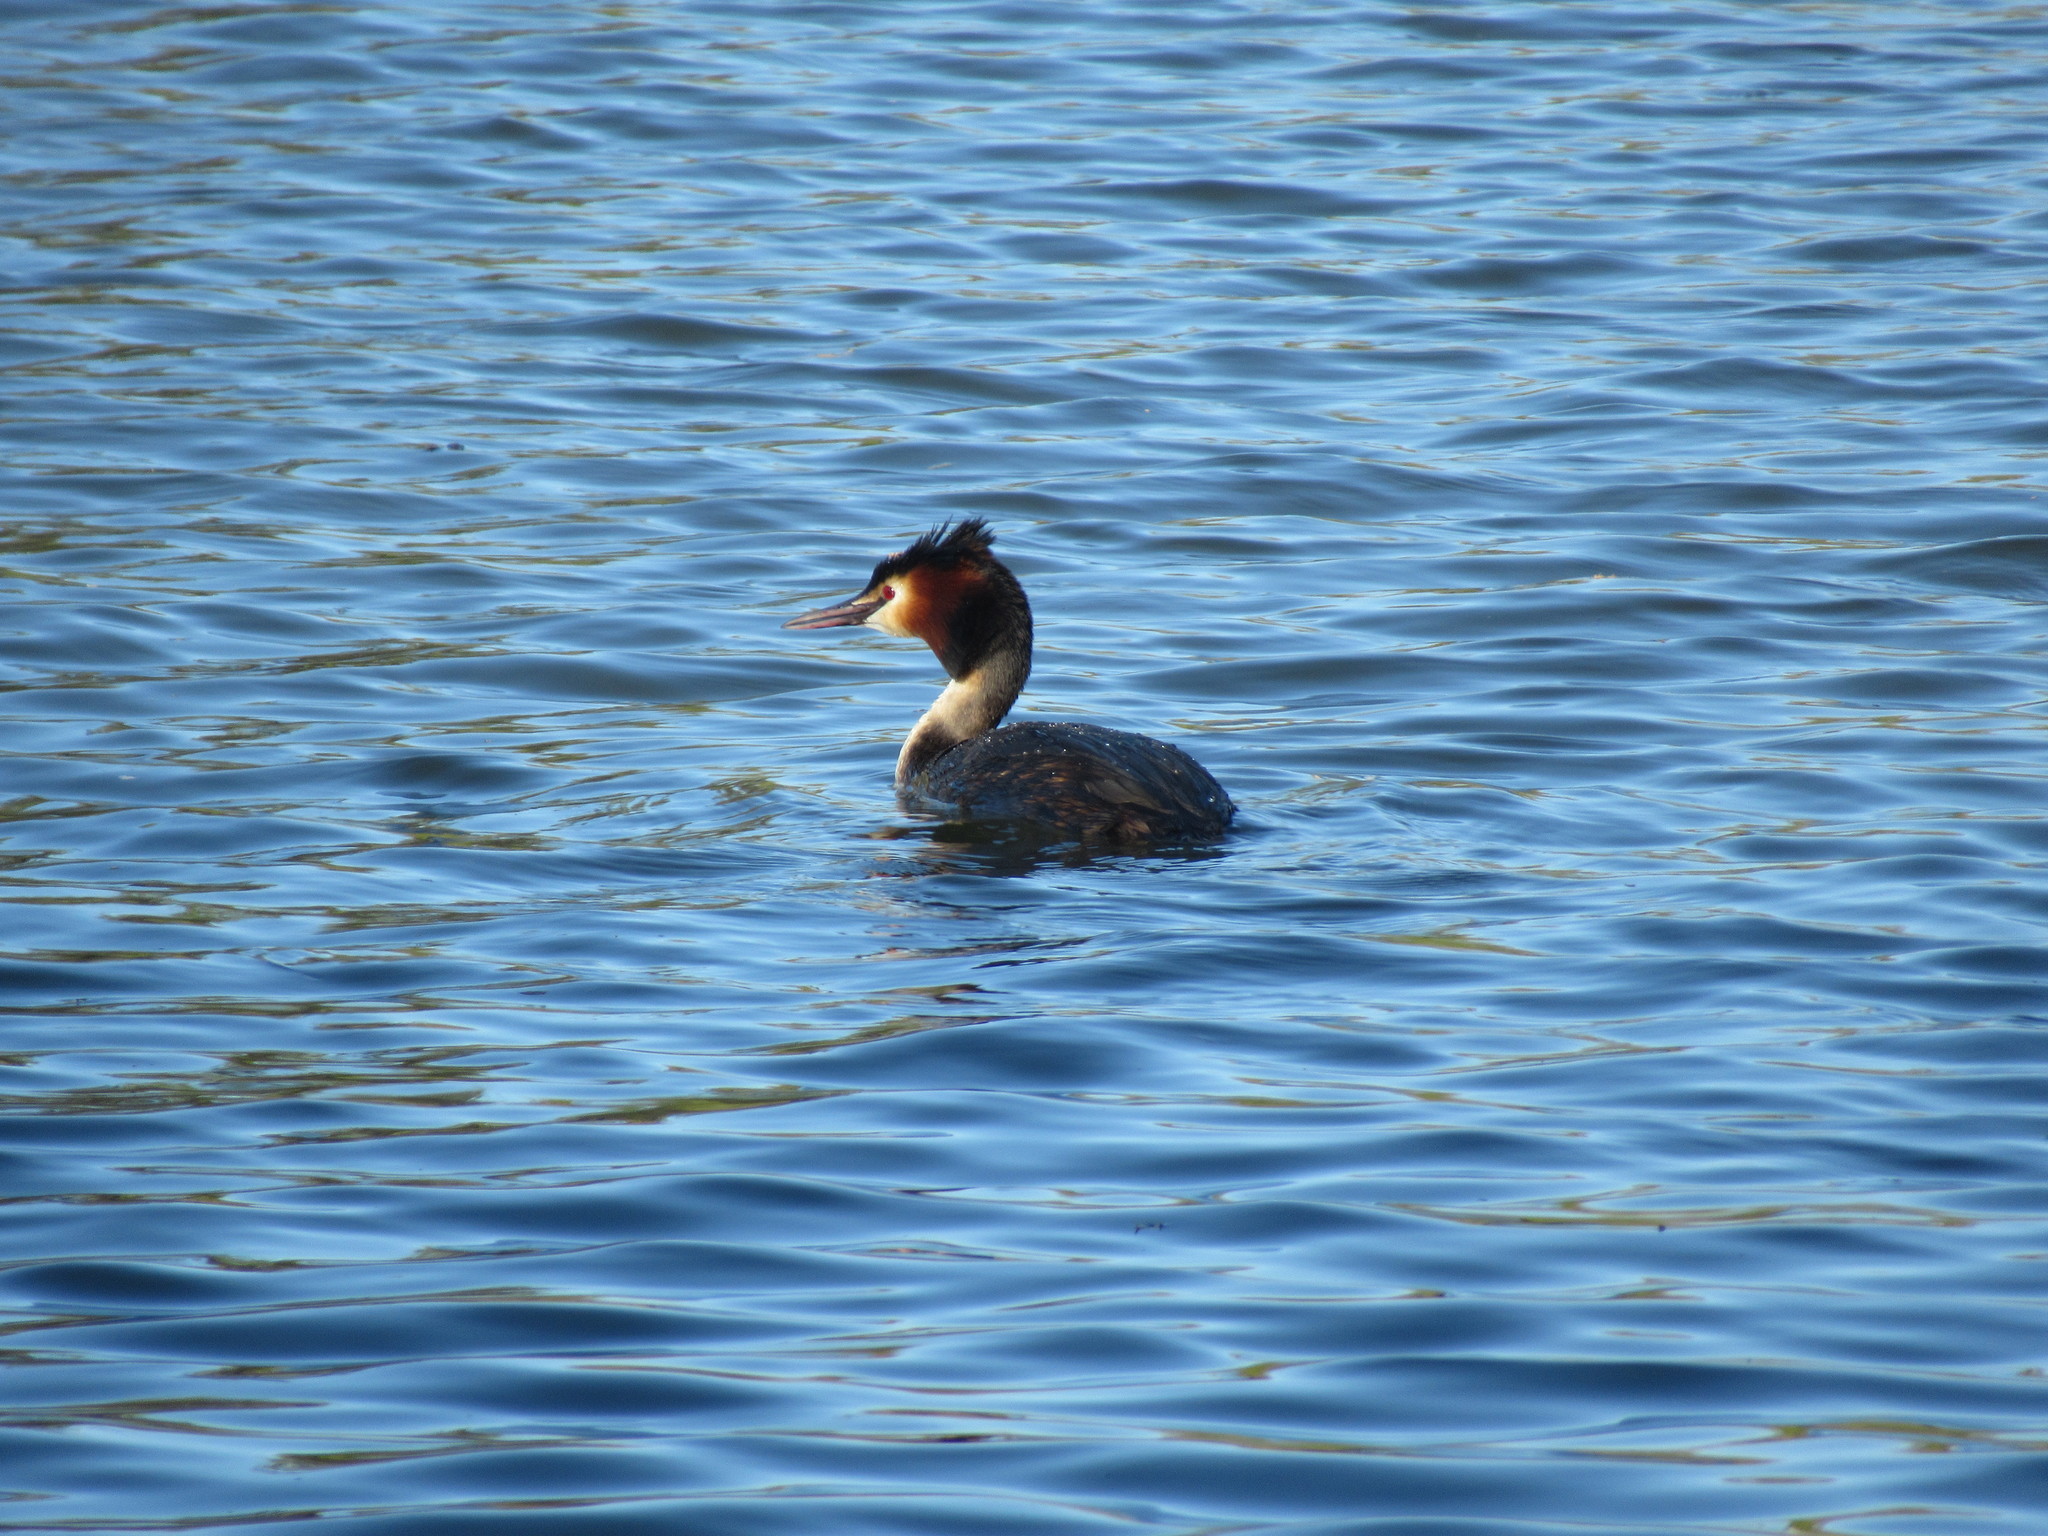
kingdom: Animalia
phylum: Chordata
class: Aves
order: Podicipediformes
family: Podicipedidae
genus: Podiceps
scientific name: Podiceps cristatus
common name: Great crested grebe
